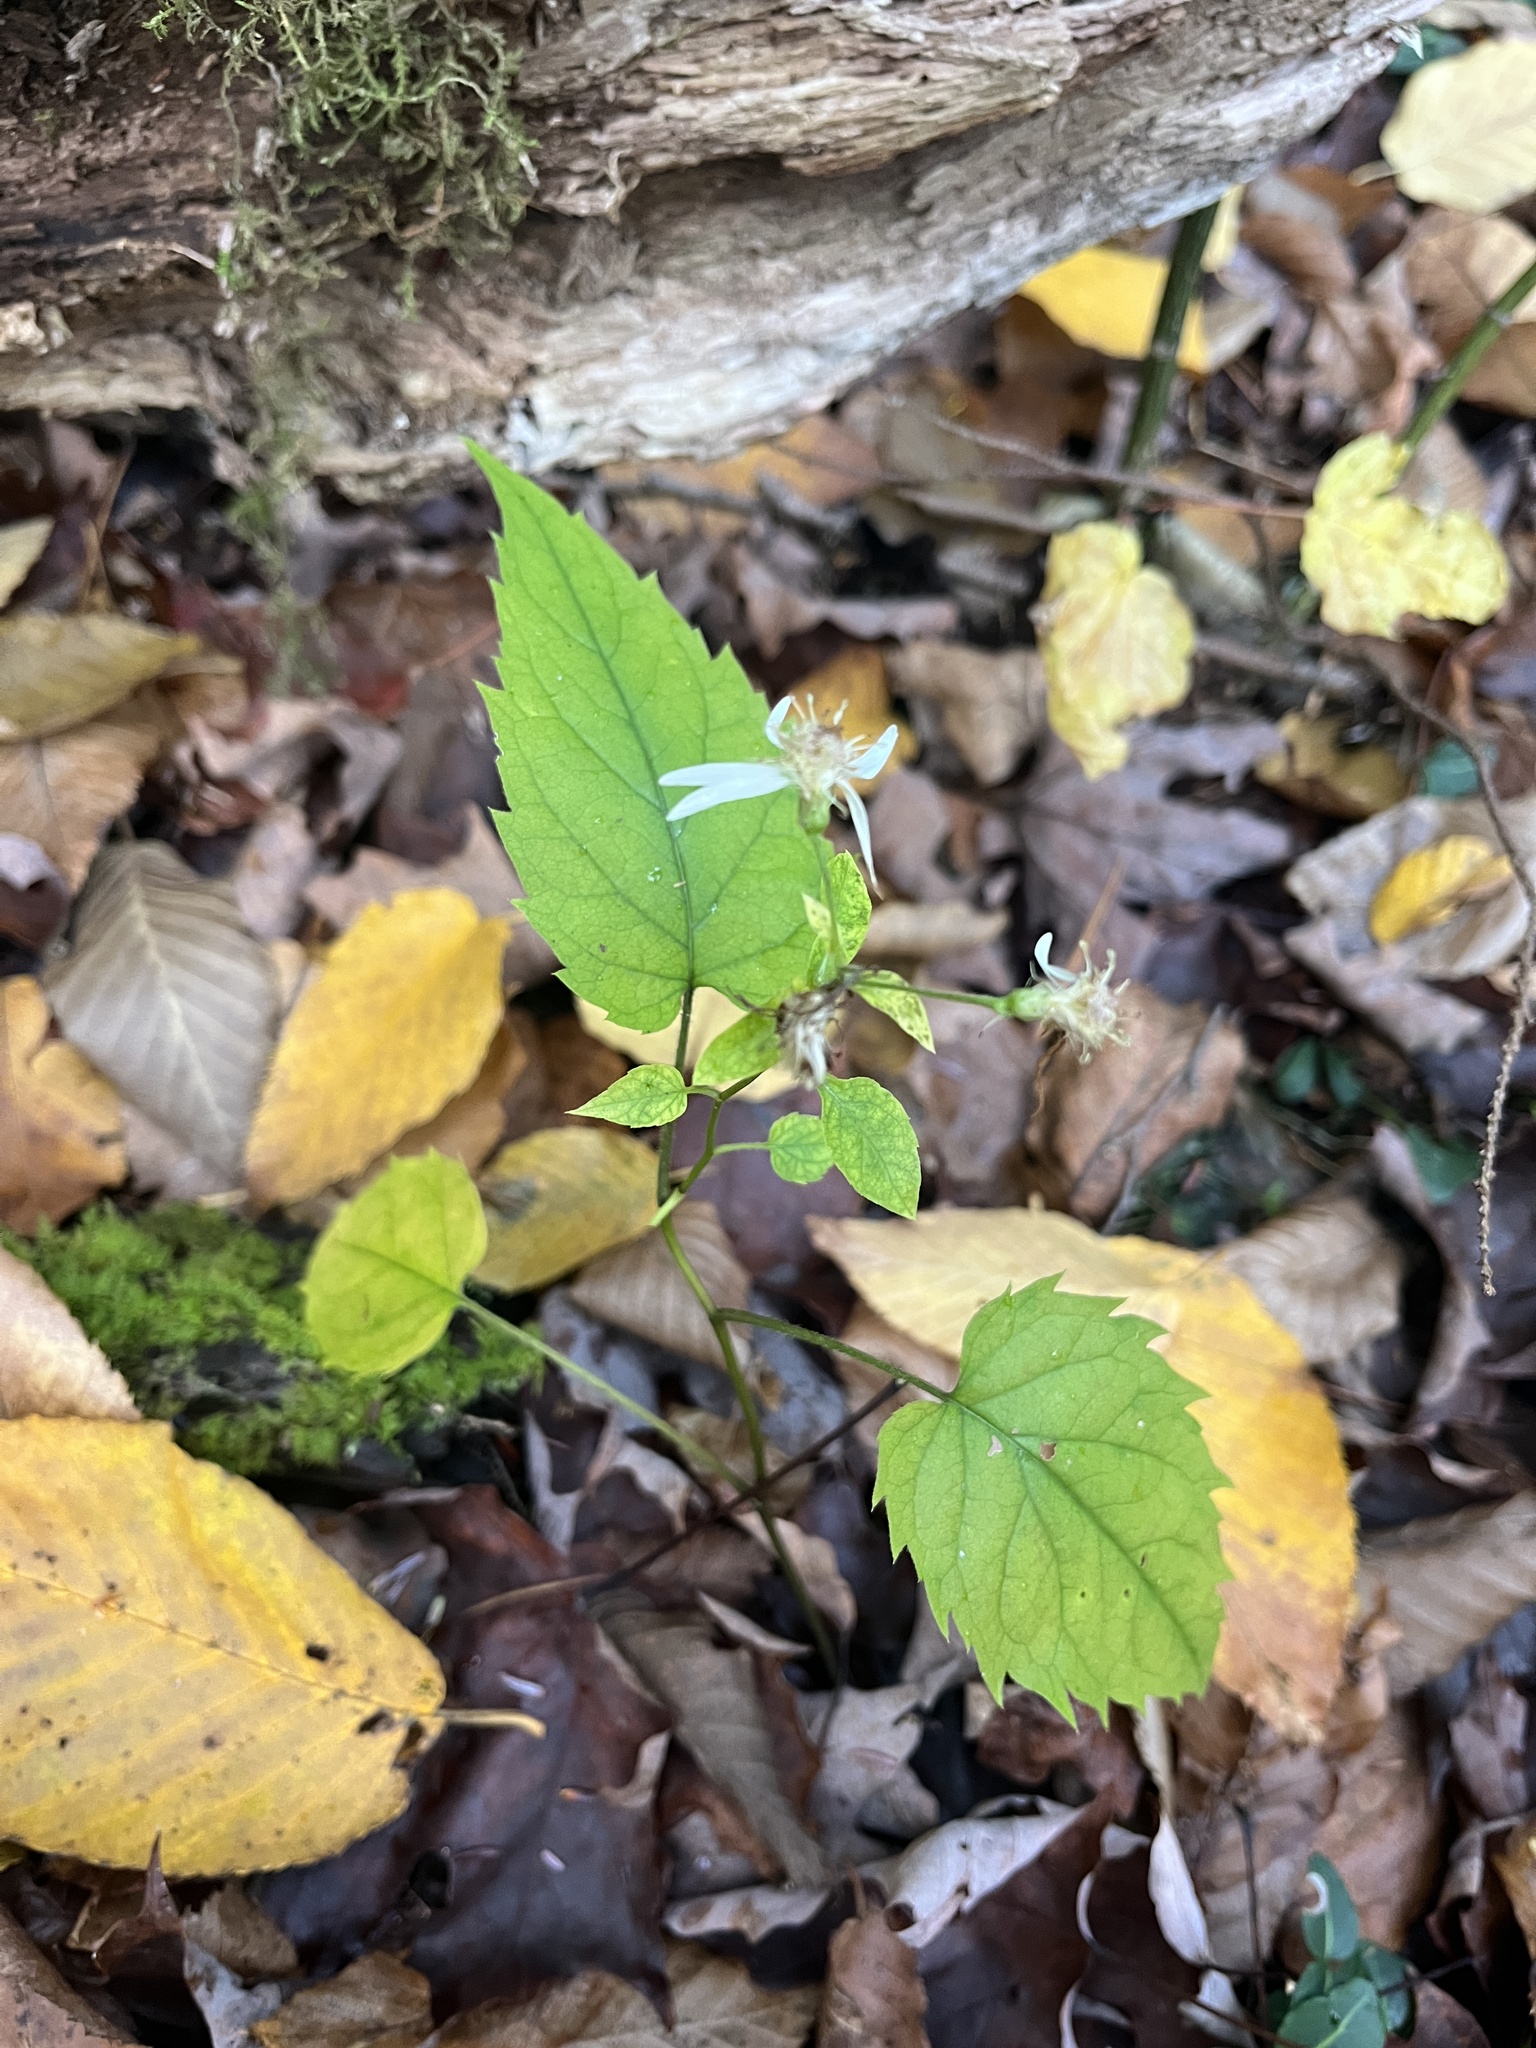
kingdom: Plantae
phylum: Tracheophyta
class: Magnoliopsida
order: Asterales
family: Asteraceae
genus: Eurybia
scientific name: Eurybia divaricata
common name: White wood aster
